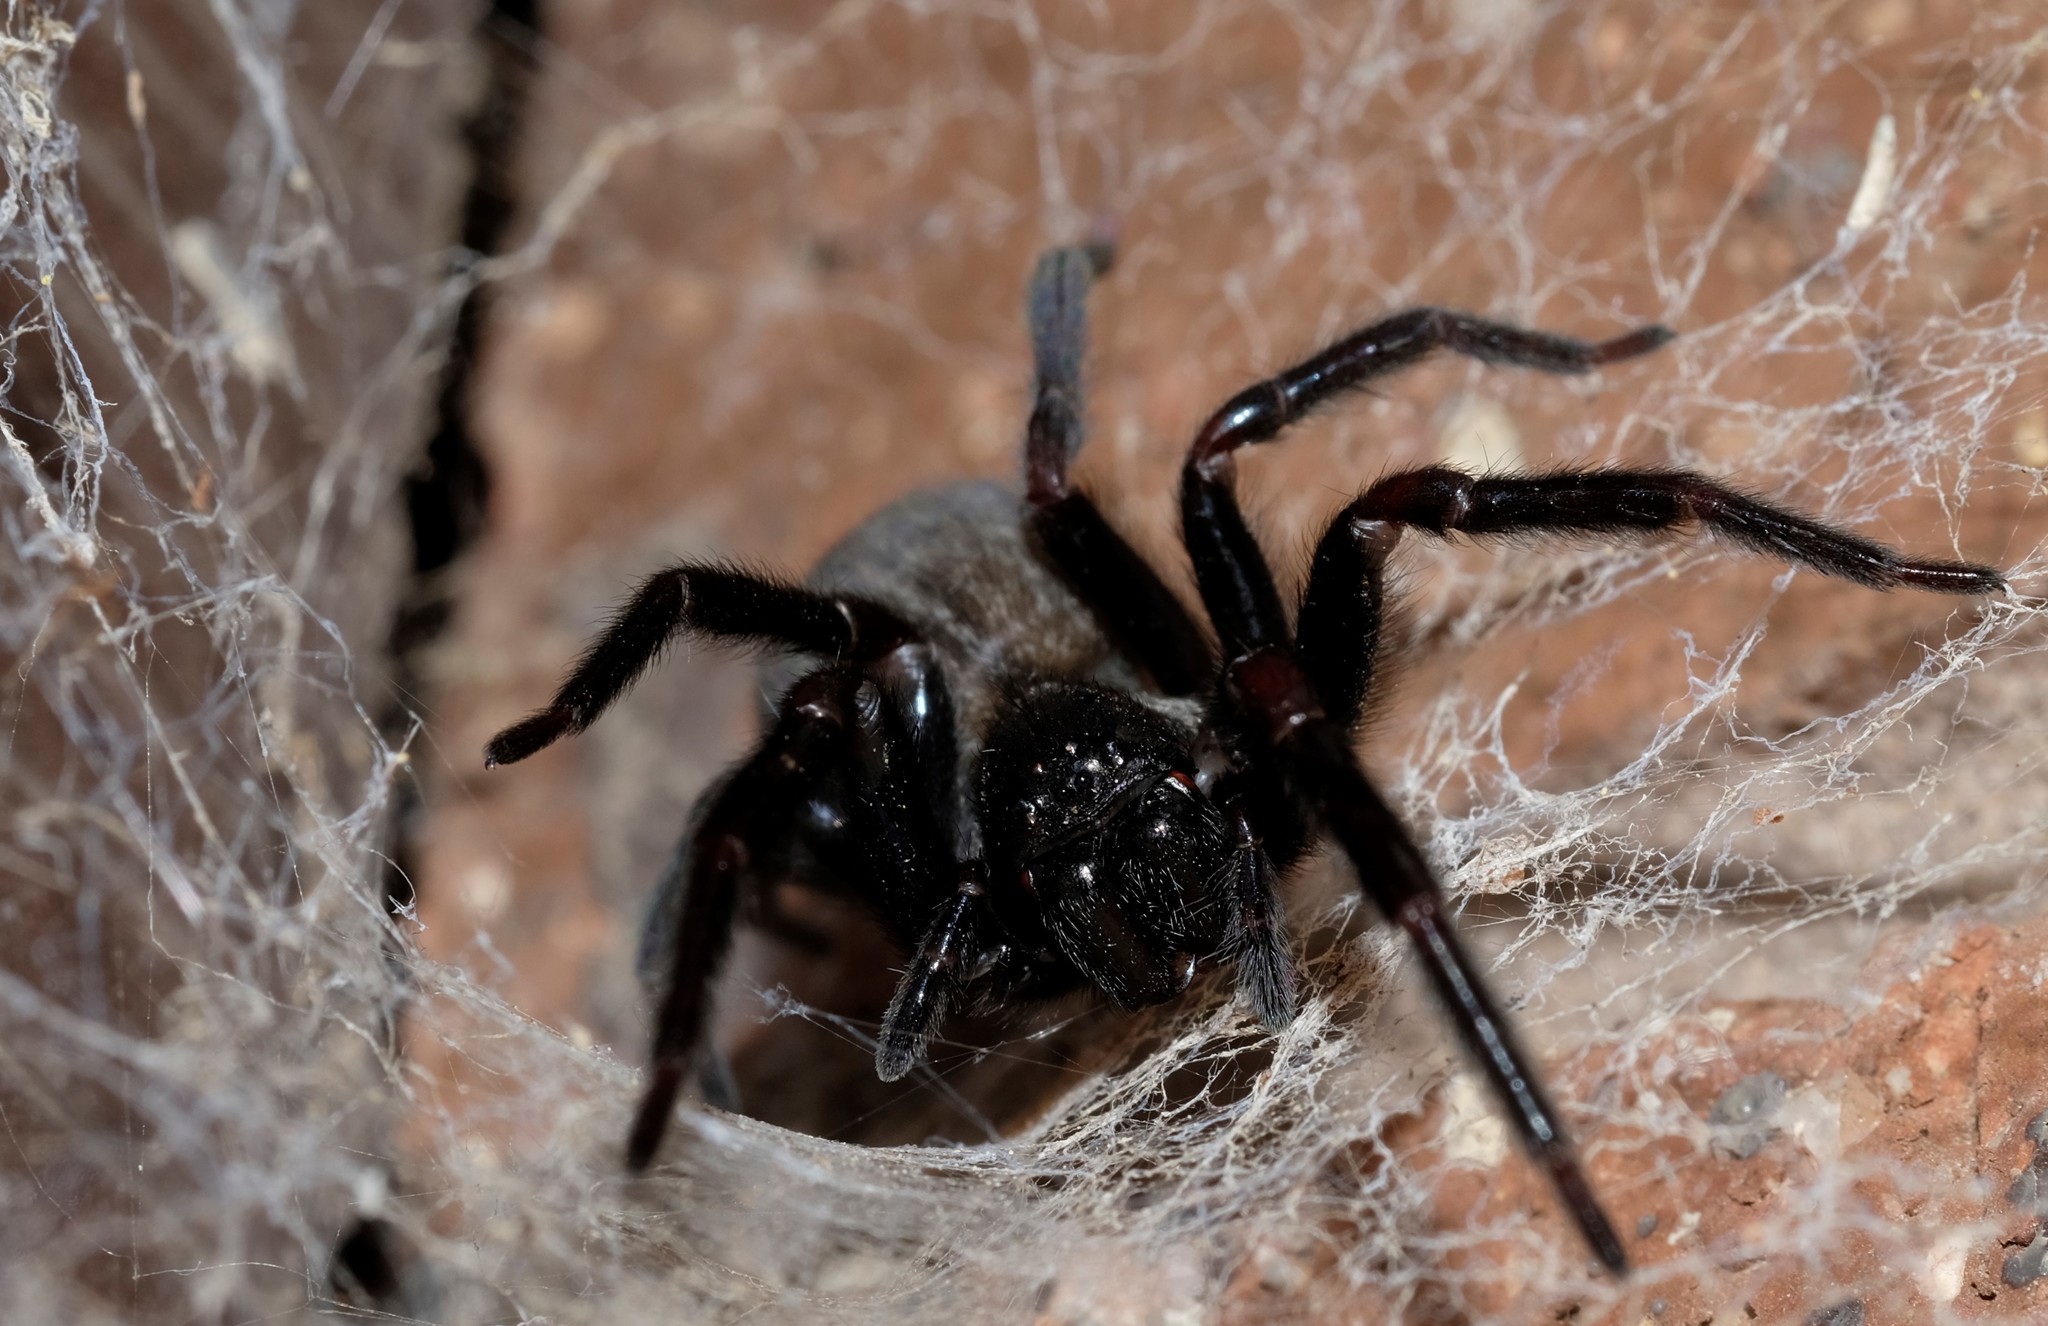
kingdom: Animalia
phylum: Arthropoda
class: Arachnida
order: Araneae
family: Desidae
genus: Badumna
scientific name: Badumna insignis
